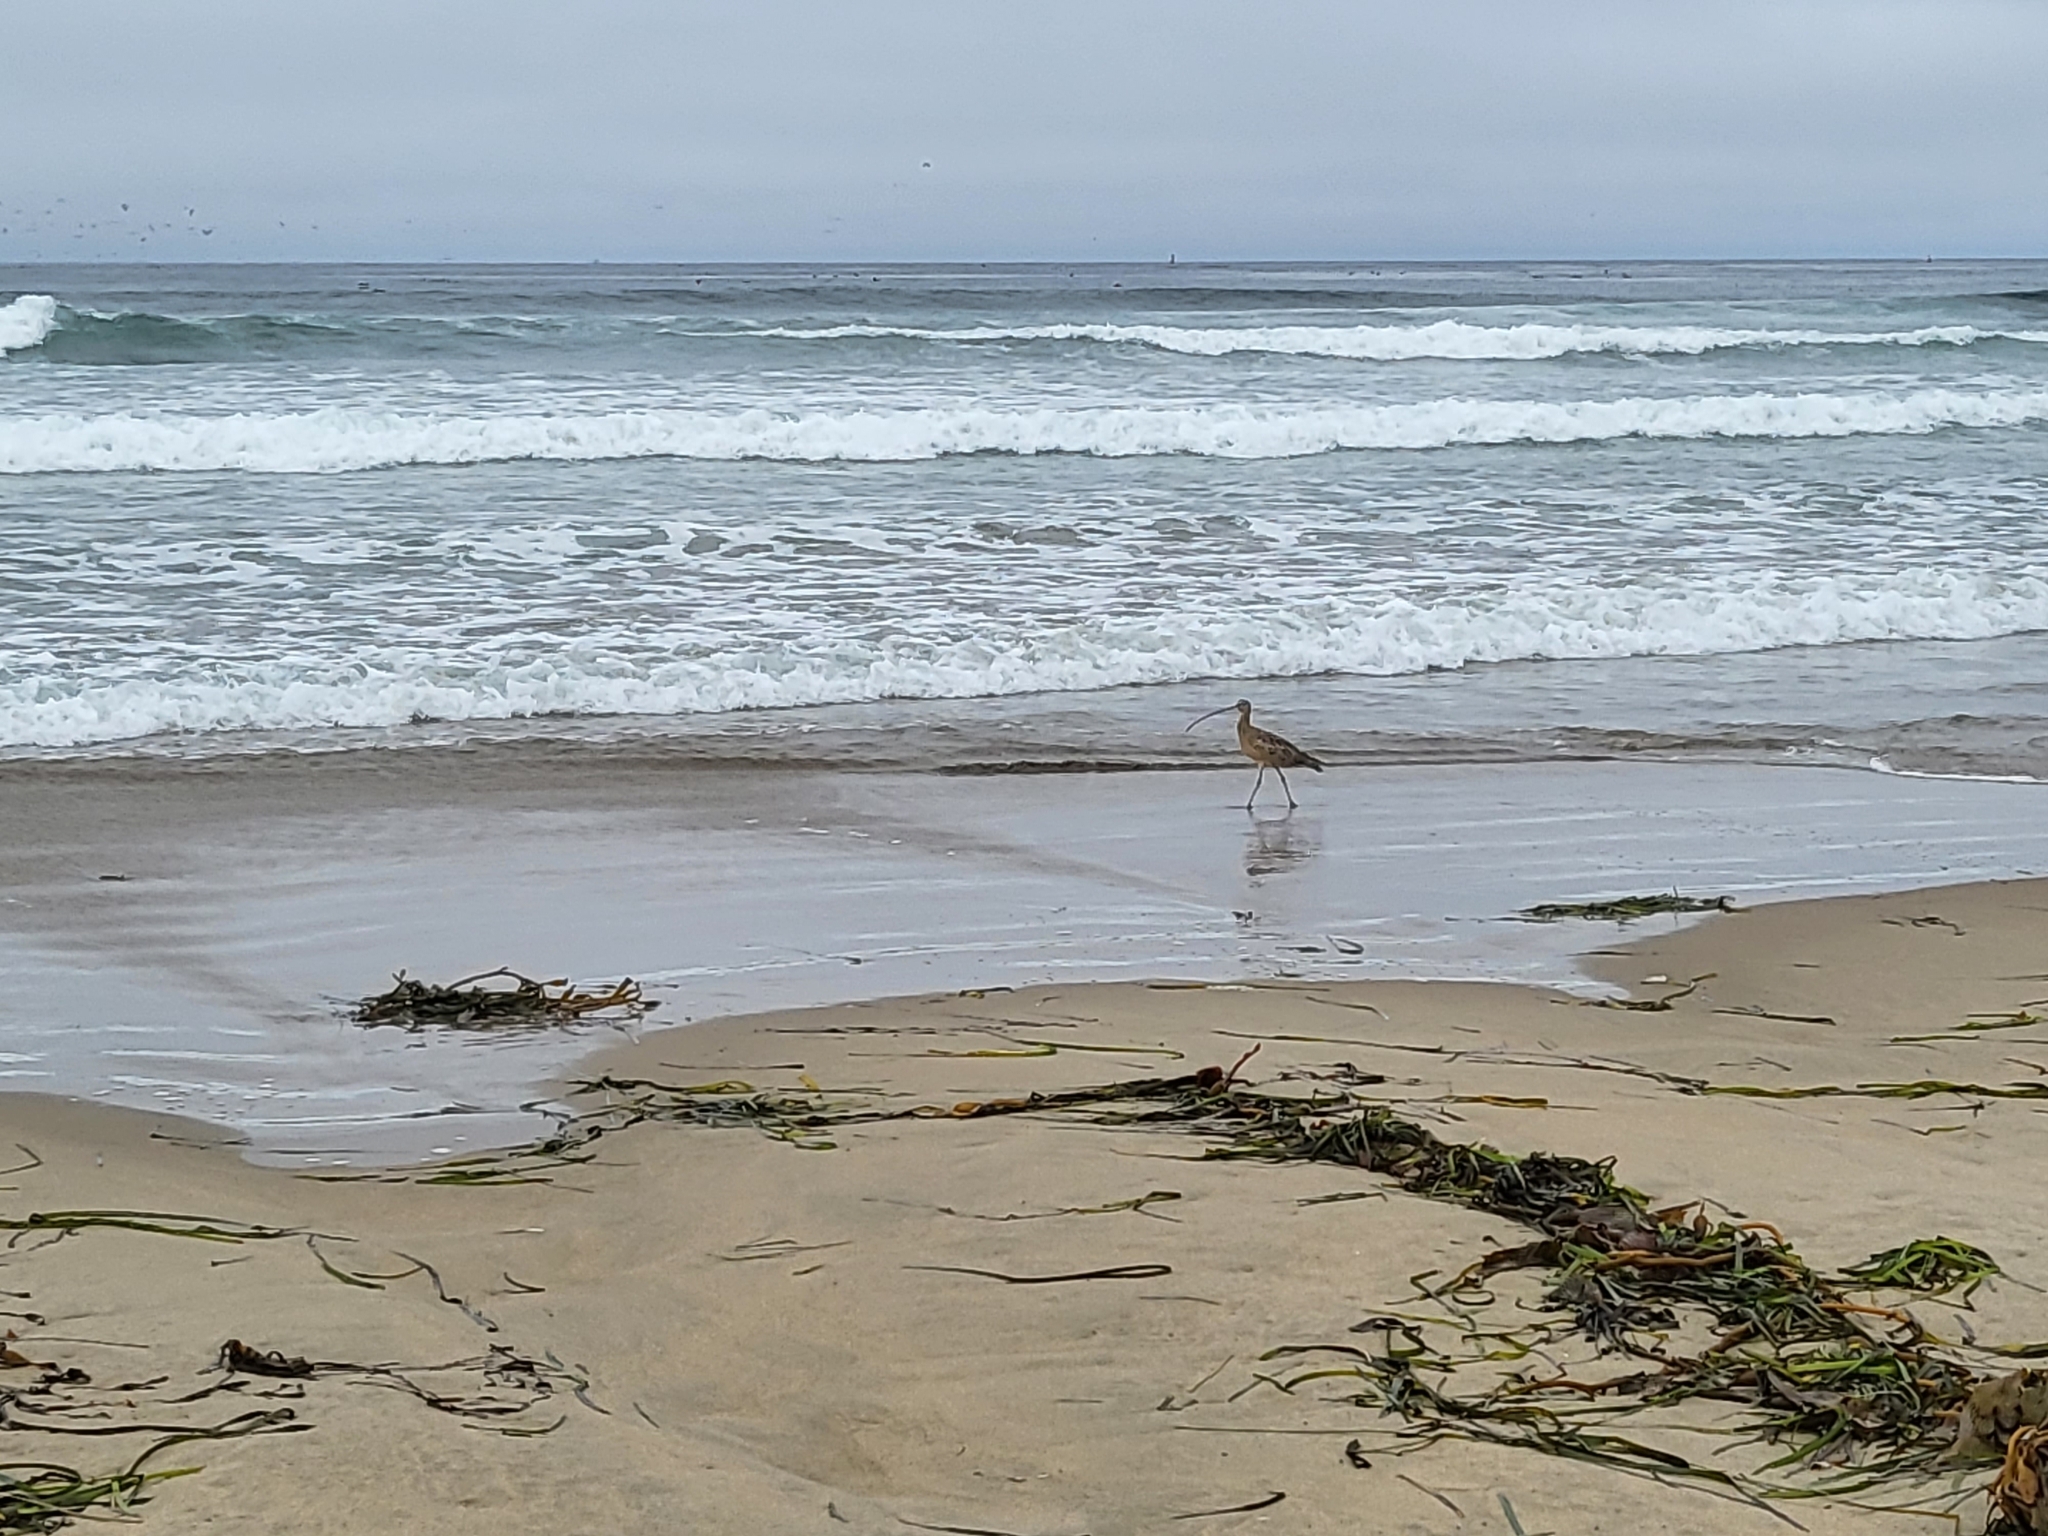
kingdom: Animalia
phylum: Chordata
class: Aves
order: Charadriiformes
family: Scolopacidae
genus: Numenius
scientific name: Numenius americanus
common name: Long-billed curlew
